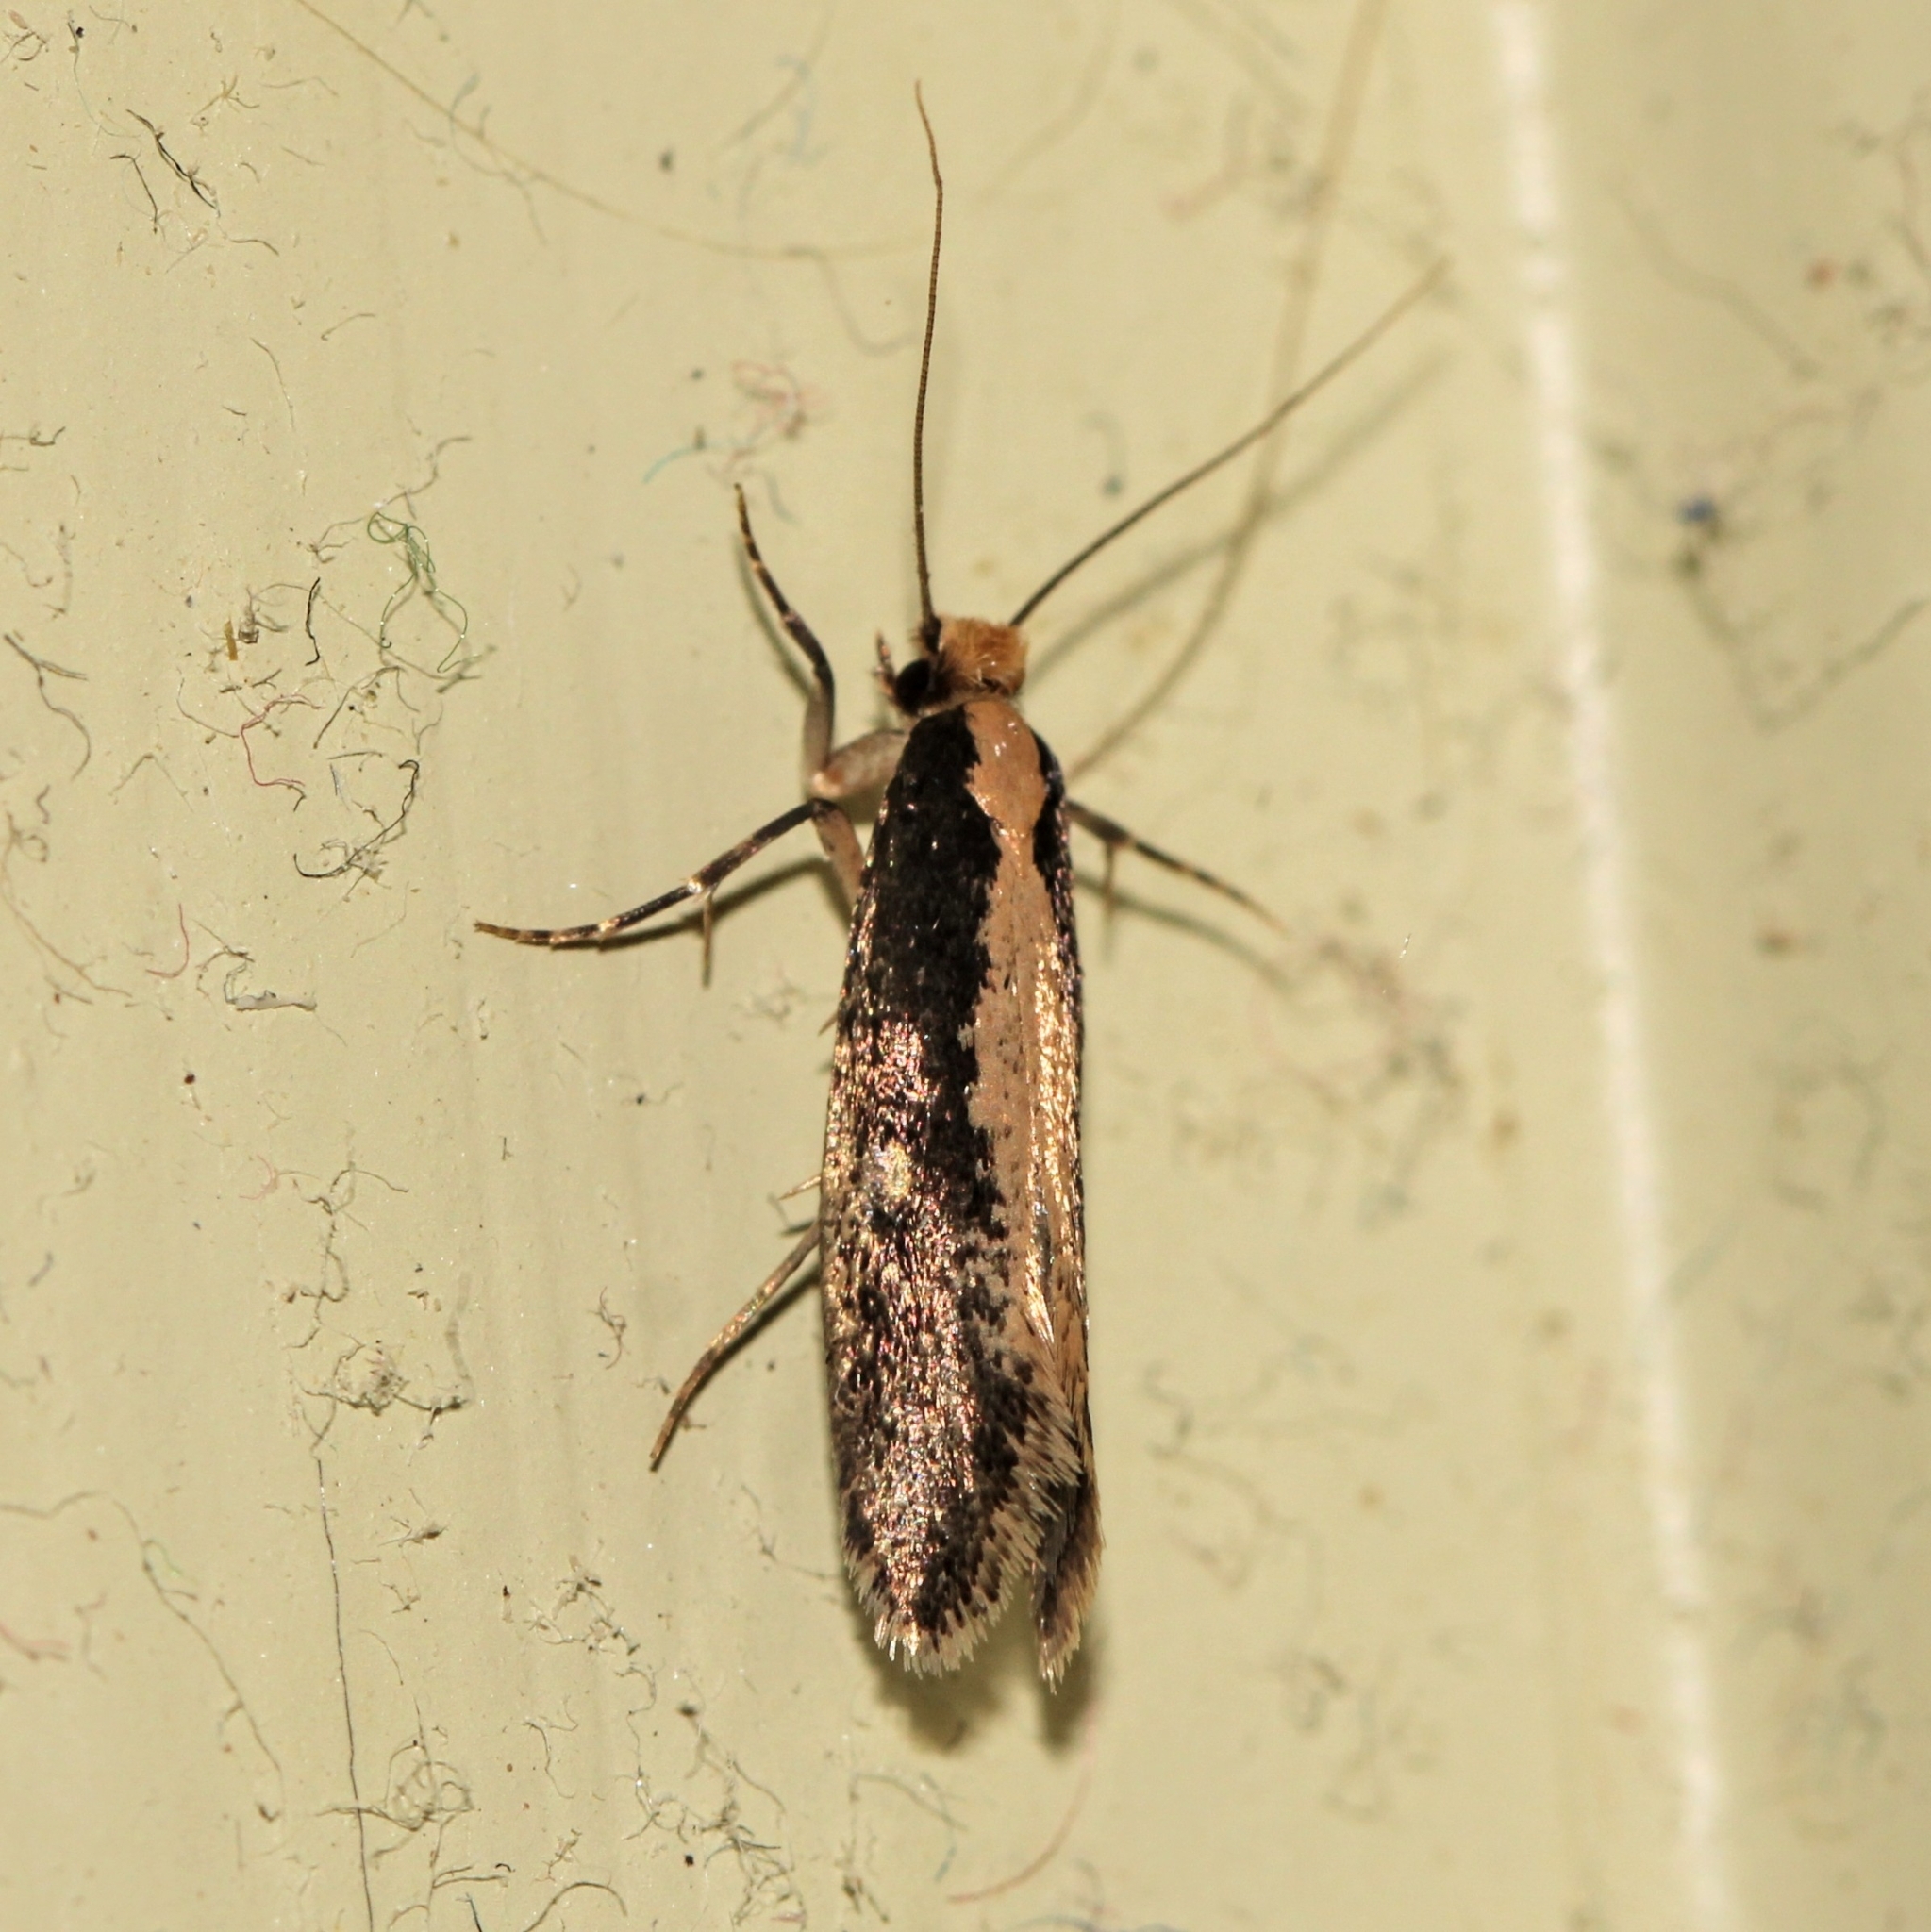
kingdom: Animalia
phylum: Arthropoda
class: Insecta
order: Lepidoptera
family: Tineidae
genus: Monopis
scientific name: Monopis crocicapitella
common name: Moth
